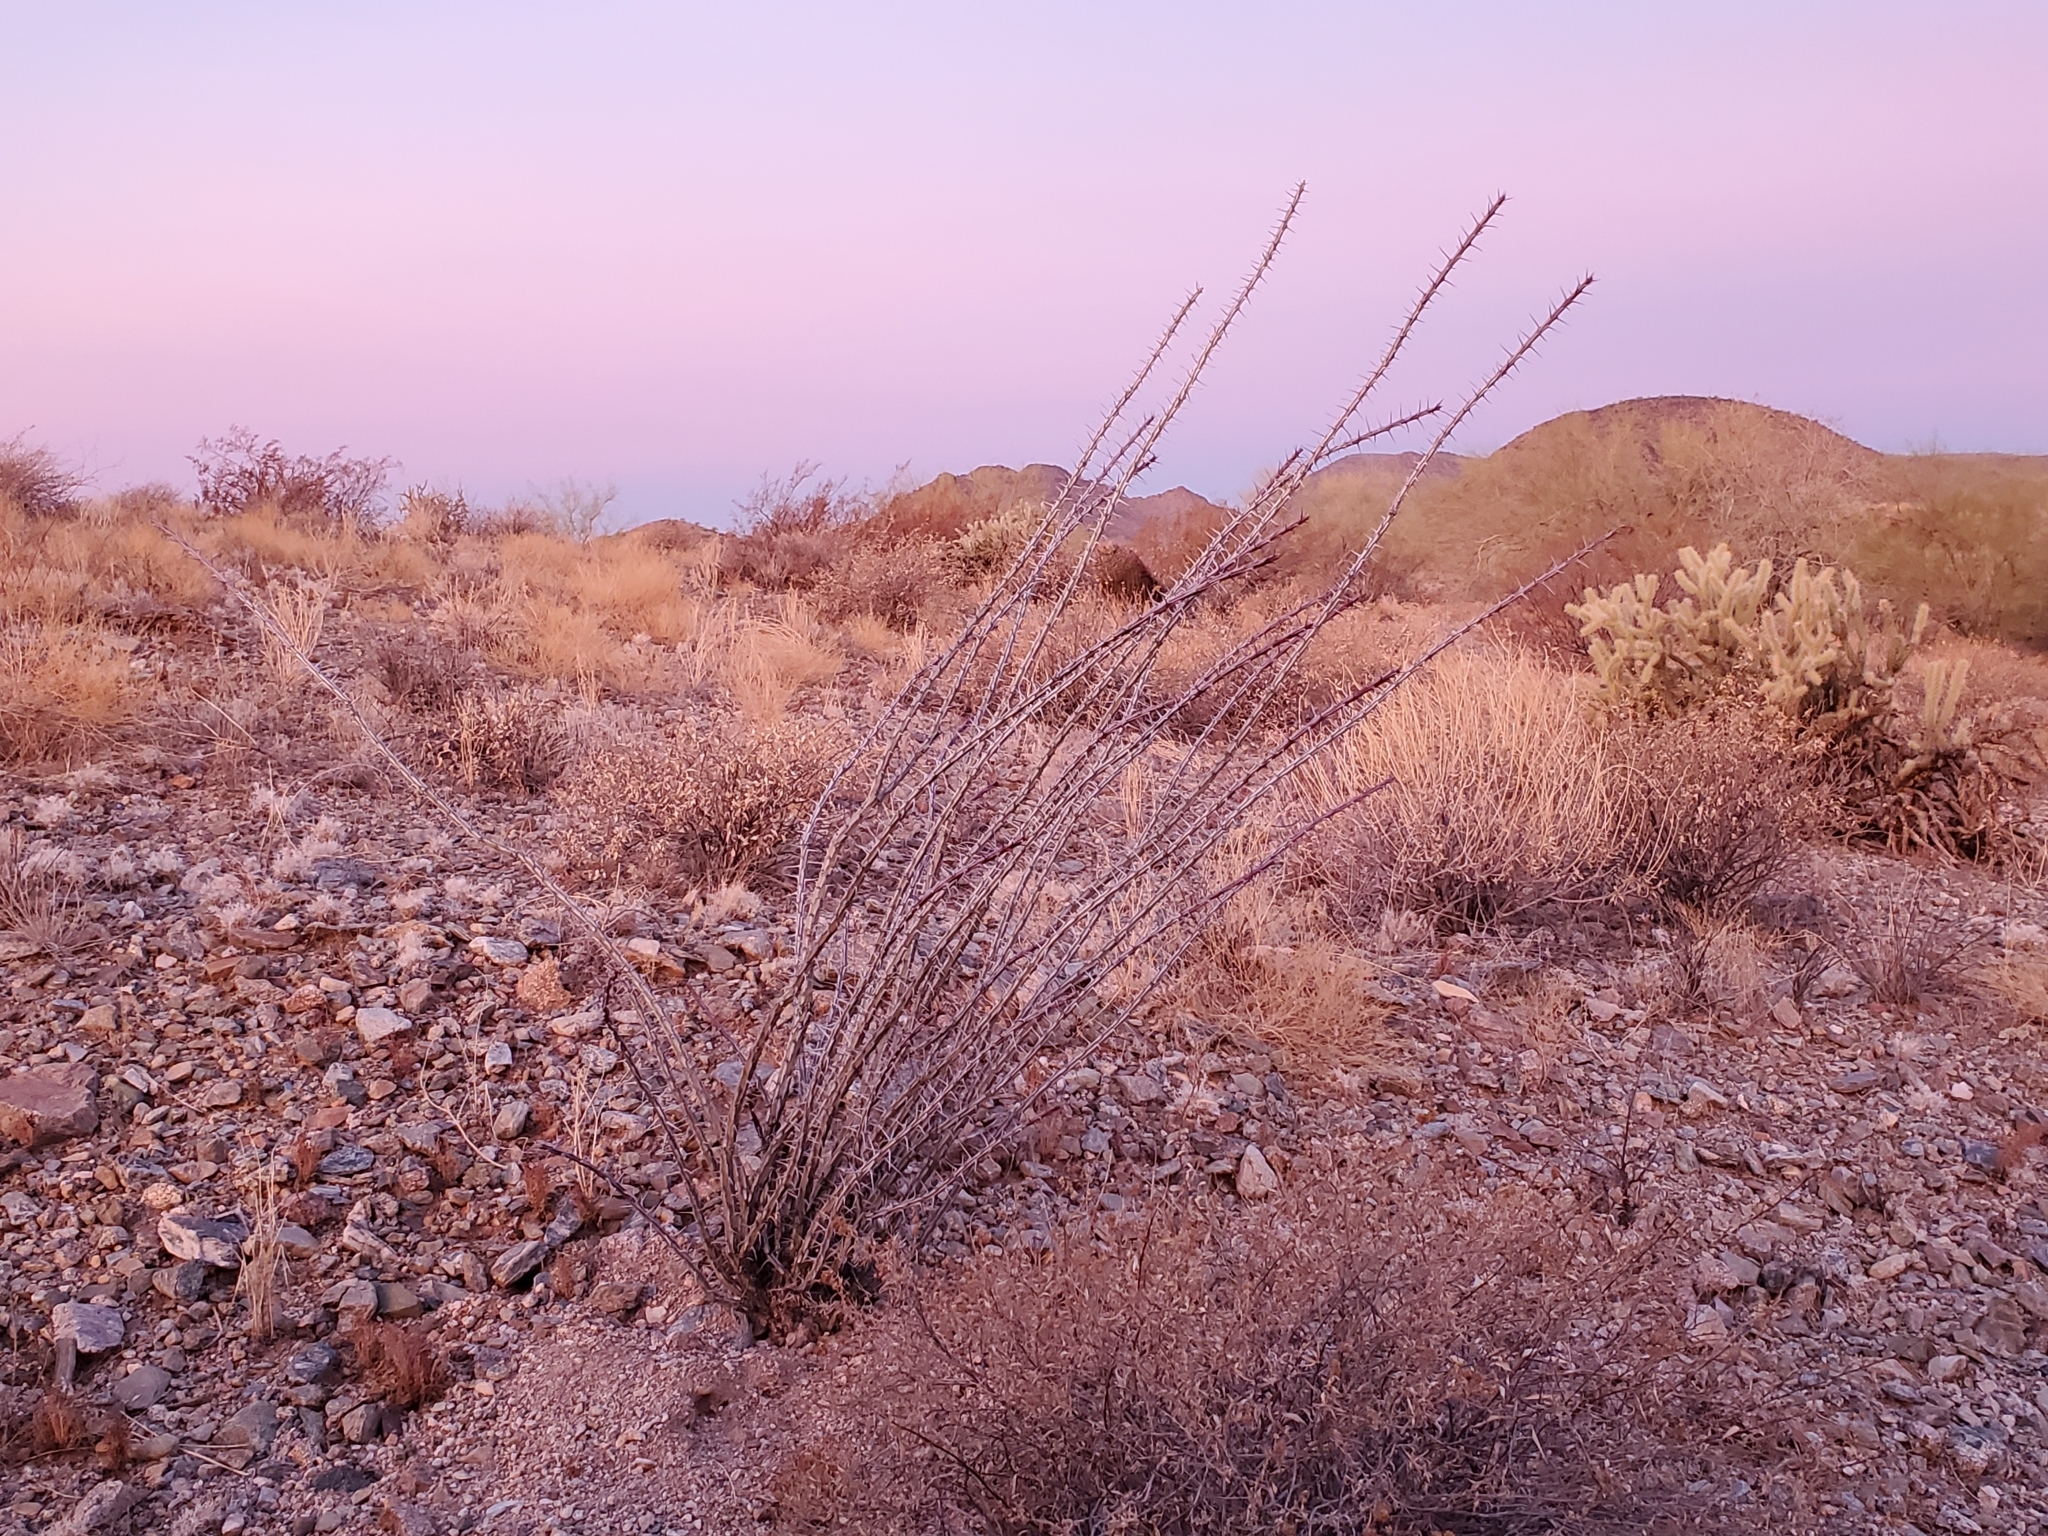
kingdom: Plantae
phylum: Tracheophyta
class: Magnoliopsida
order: Ericales
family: Fouquieriaceae
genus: Fouquieria
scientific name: Fouquieria splendens
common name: Vine-cactus
